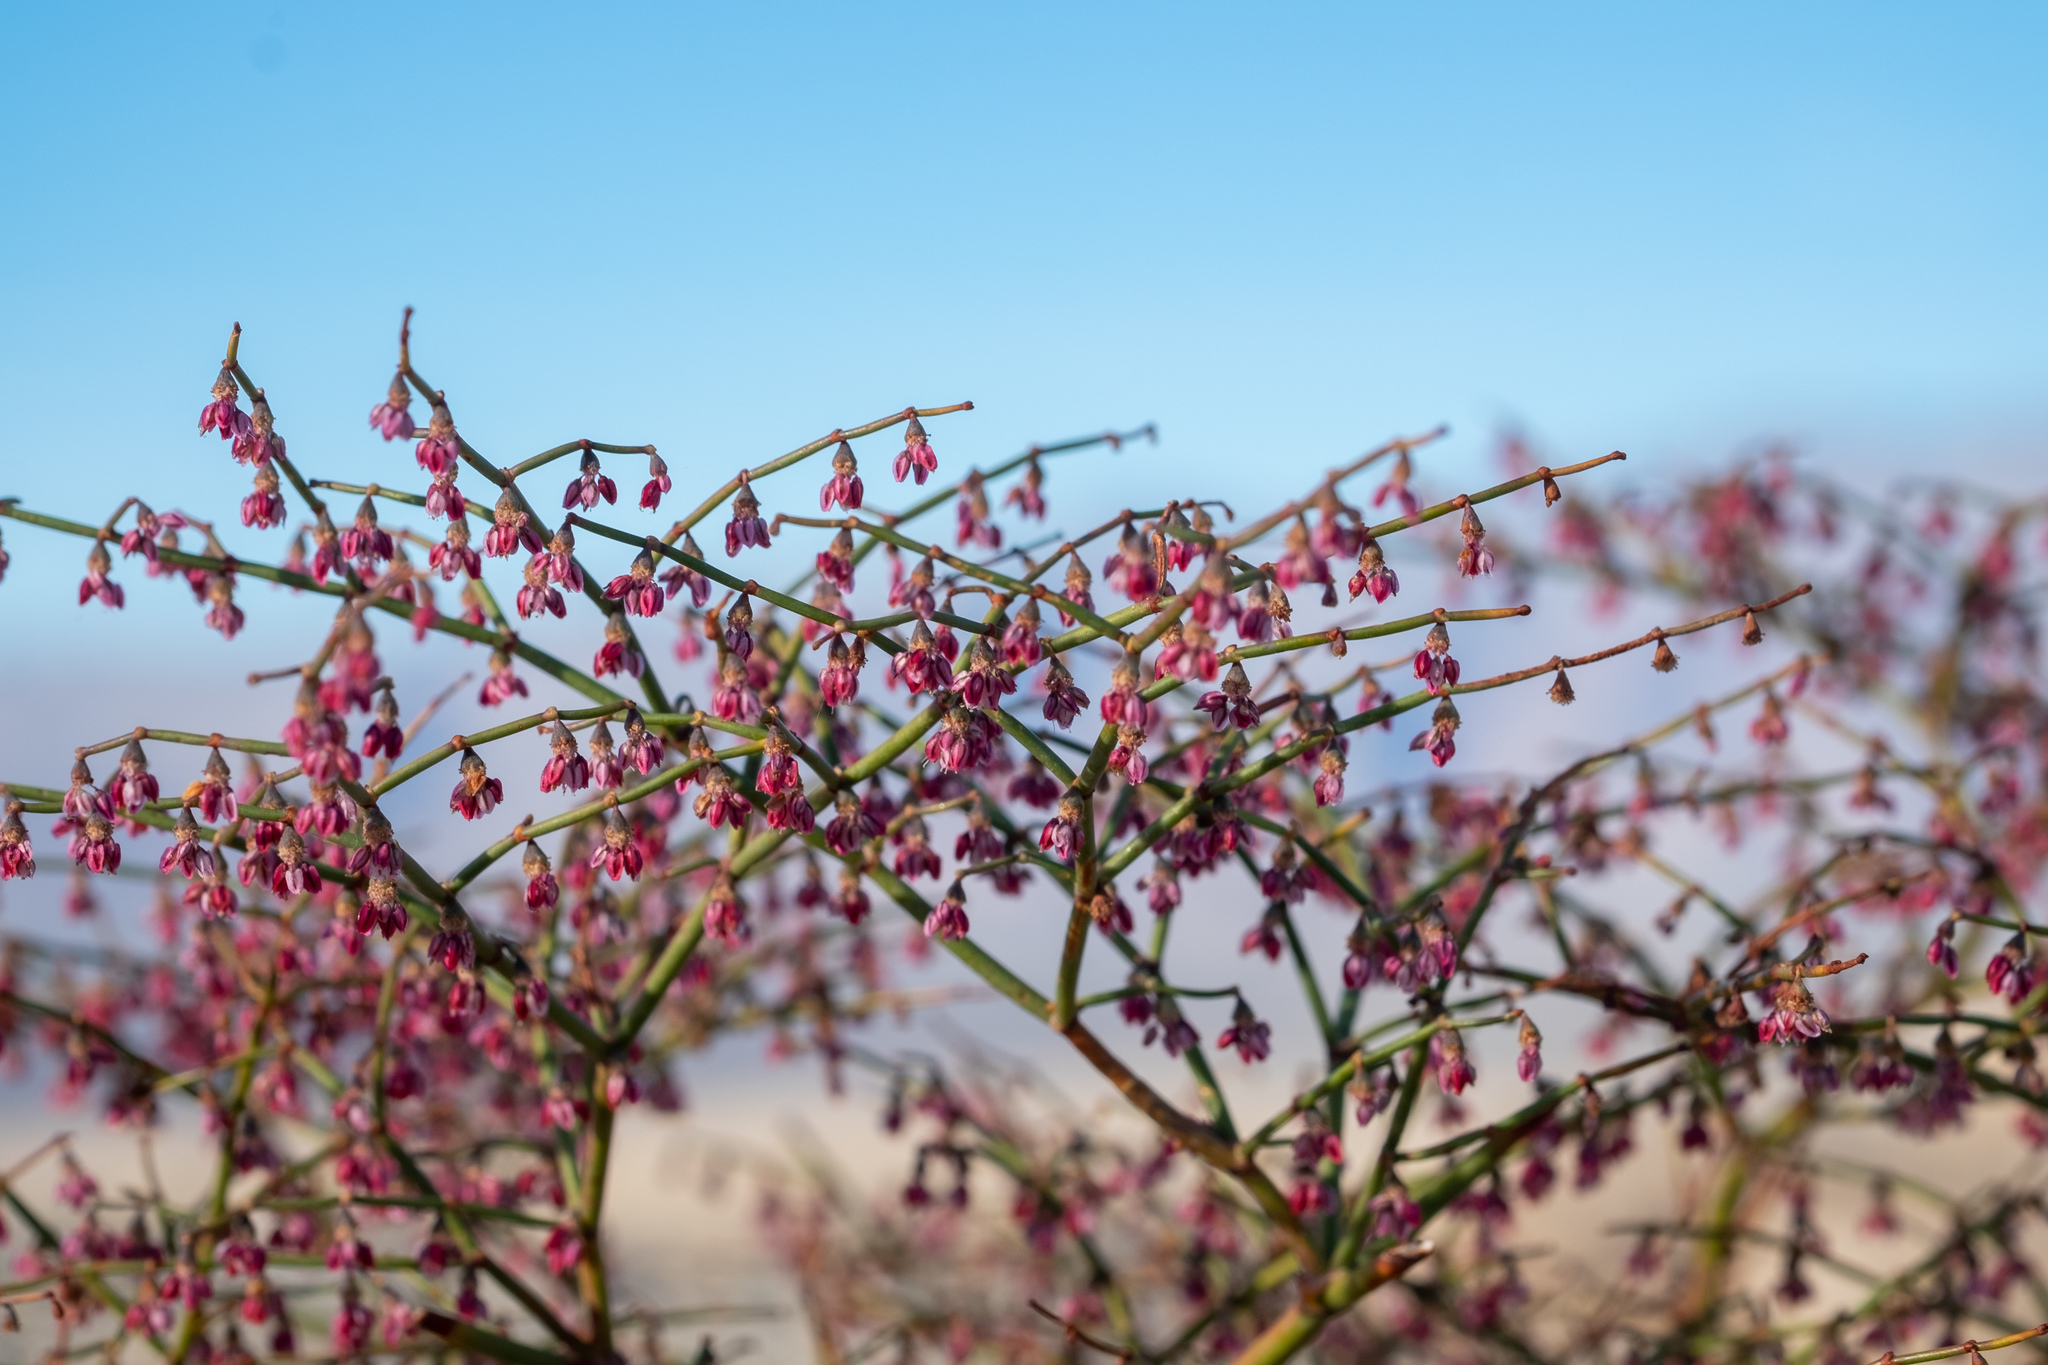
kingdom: Plantae
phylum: Tracheophyta
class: Magnoliopsida
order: Caryophyllales
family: Polygonaceae
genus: Eriogonum
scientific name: Eriogonum deflexum
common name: Skeleton-weed
